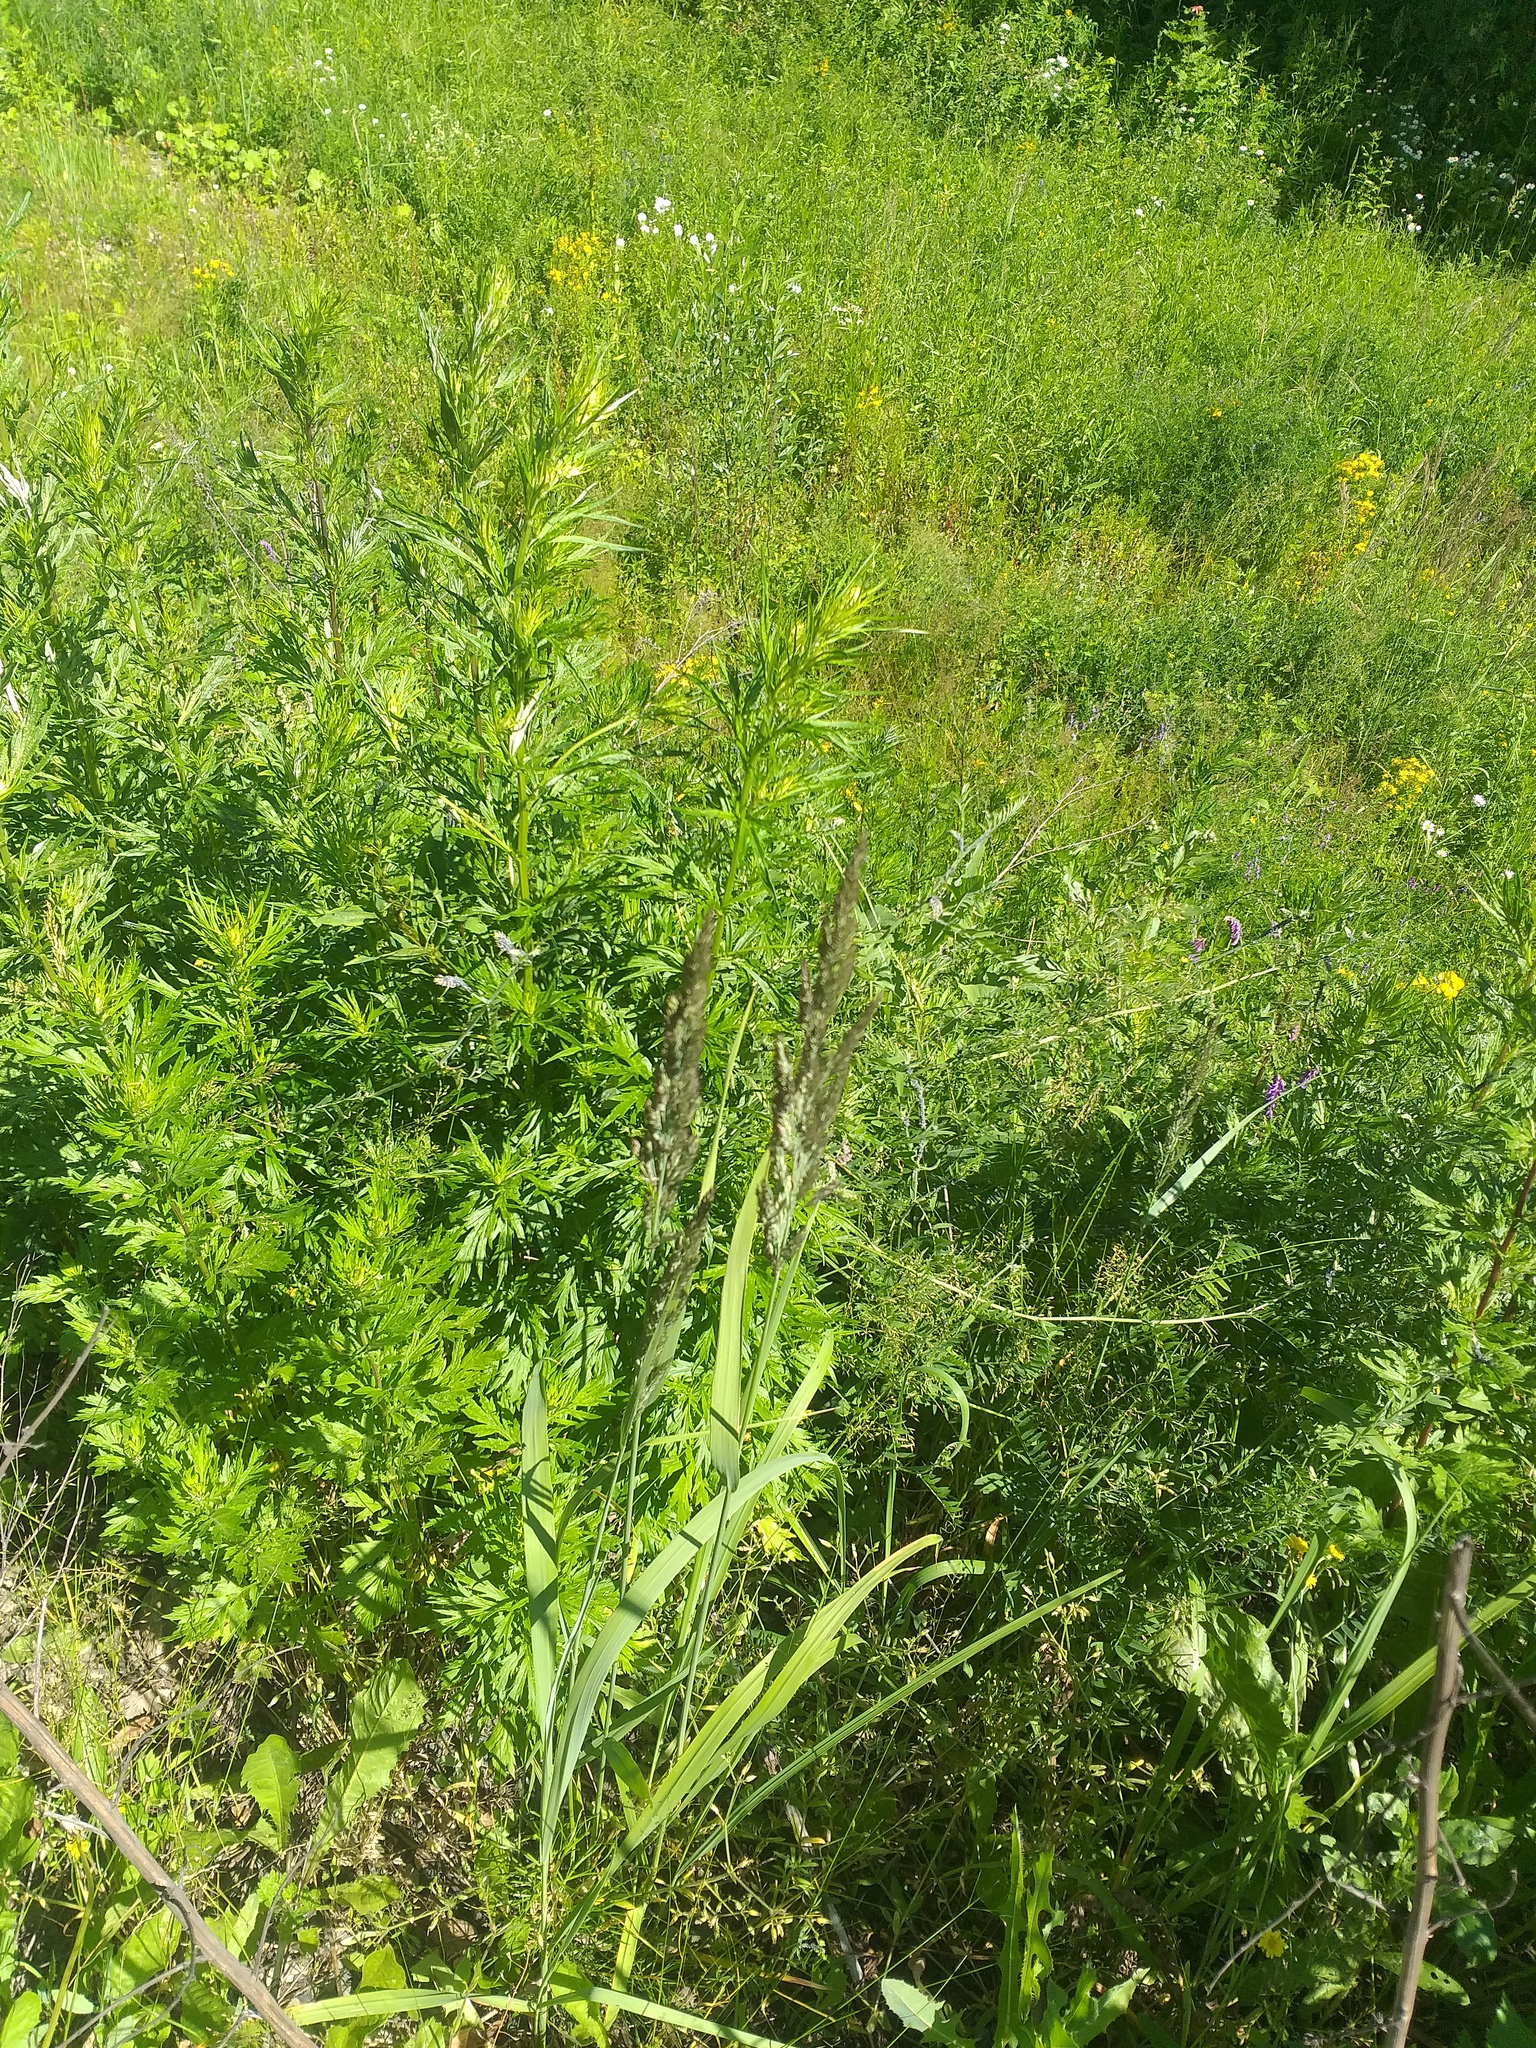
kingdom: Plantae
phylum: Tracheophyta
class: Liliopsida
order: Poales
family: Poaceae
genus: Calamagrostis
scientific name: Calamagrostis epigejos
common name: Wood small-reed
